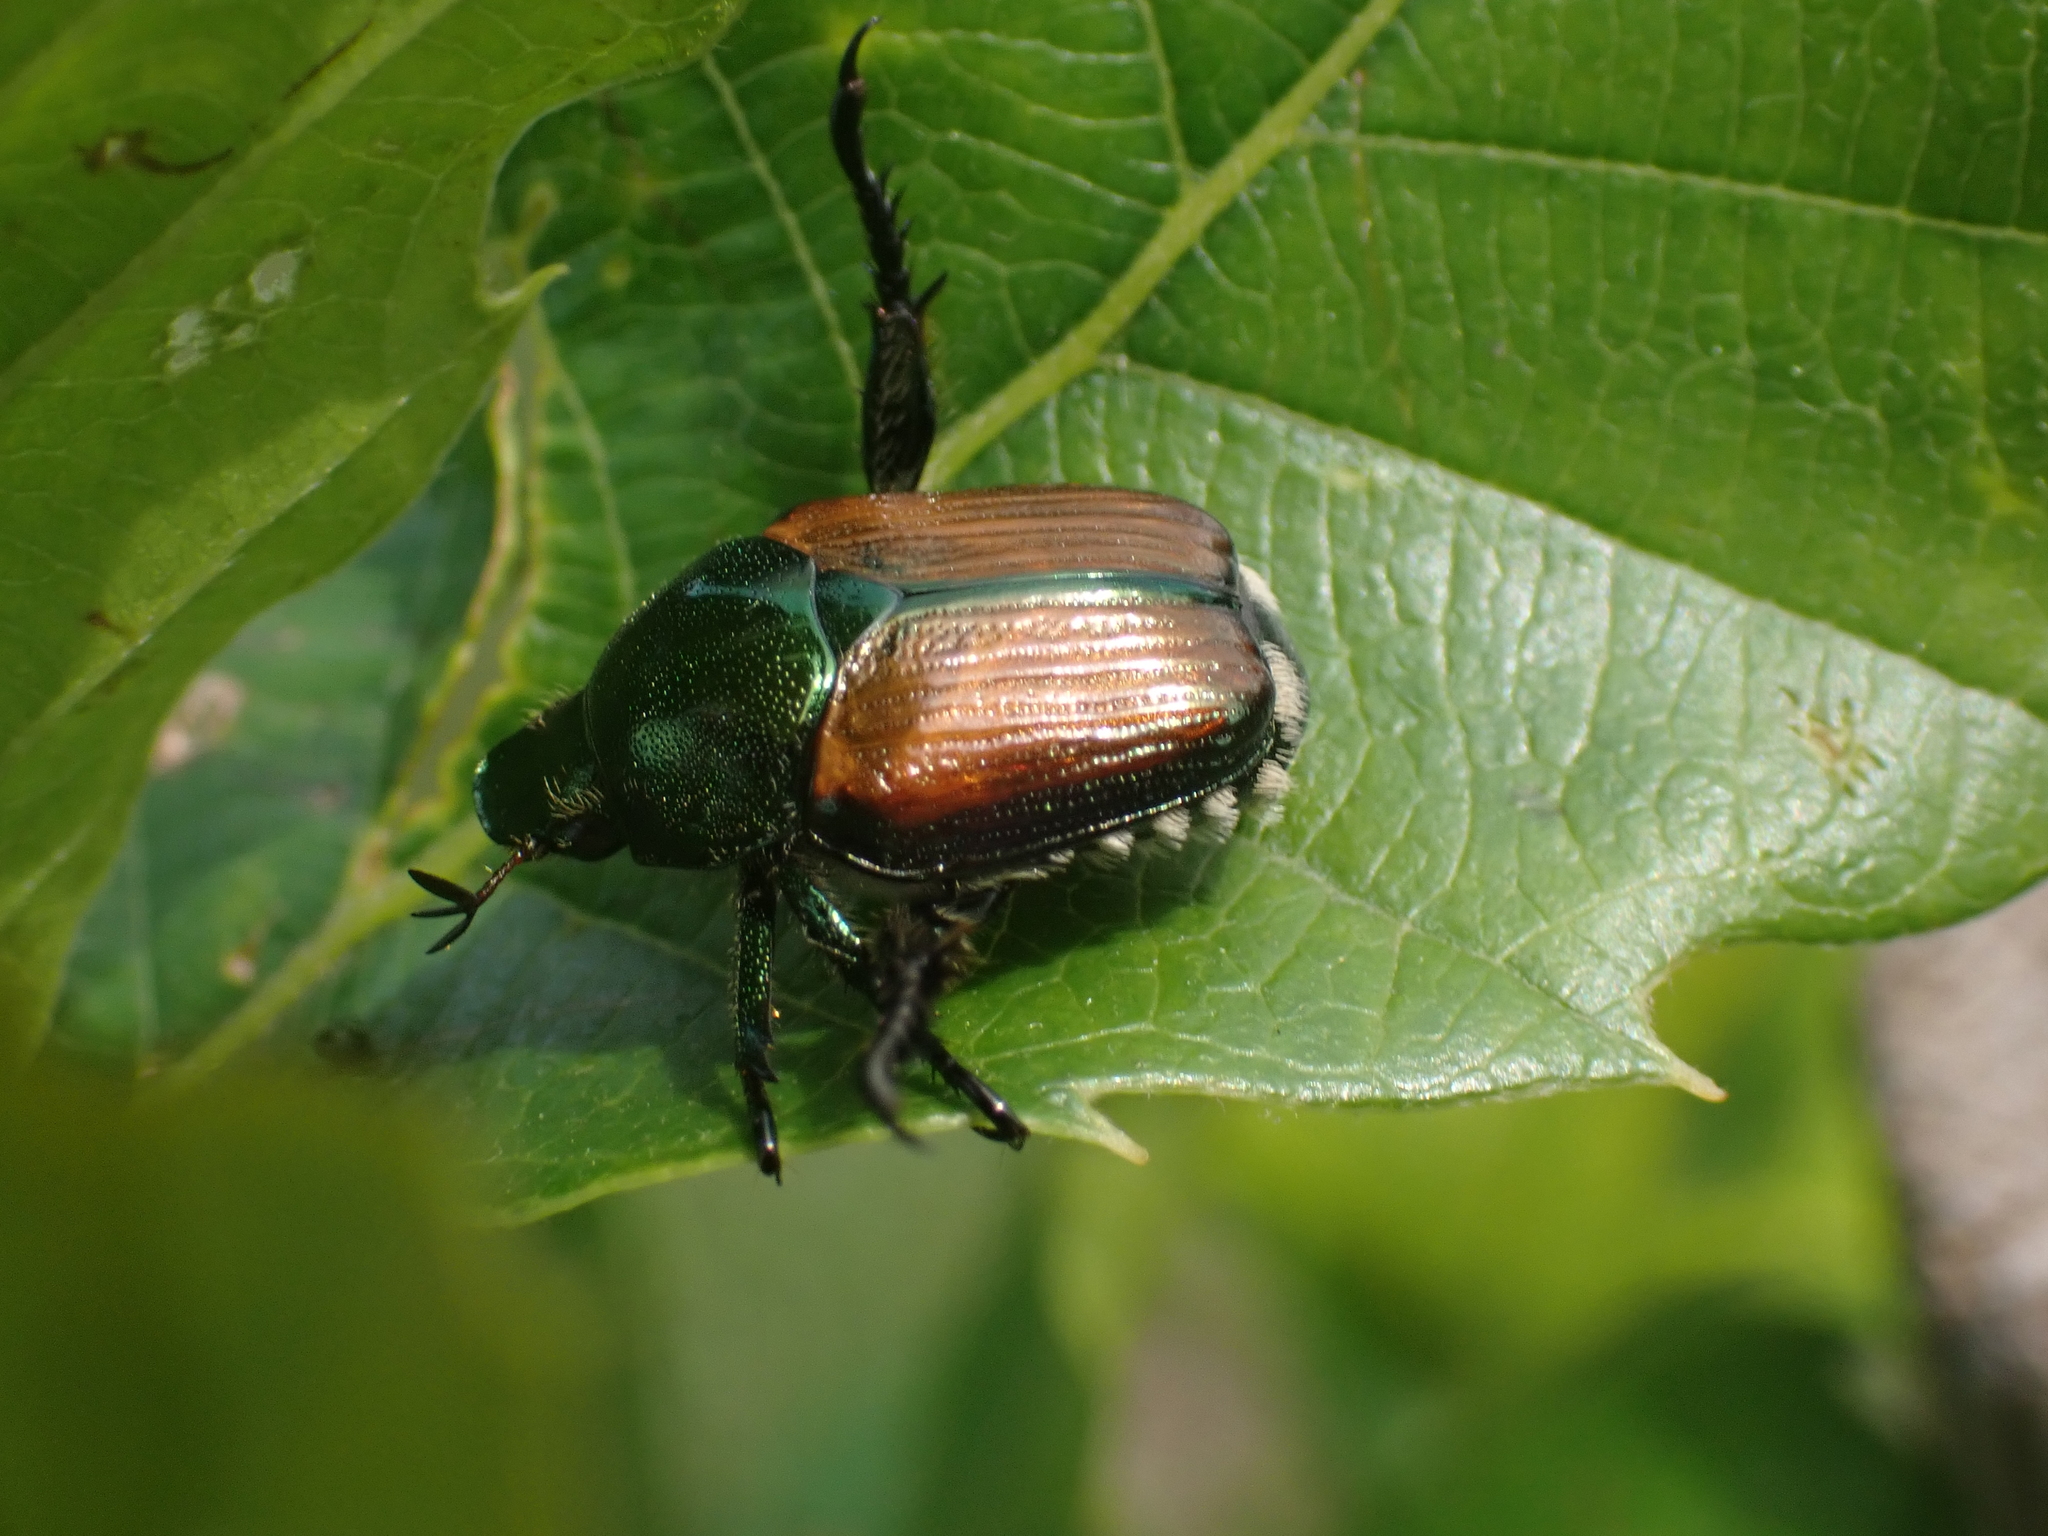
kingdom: Animalia
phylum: Arthropoda
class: Insecta
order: Coleoptera
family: Scarabaeidae
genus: Popillia
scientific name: Popillia japonica
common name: Japanese beetle
